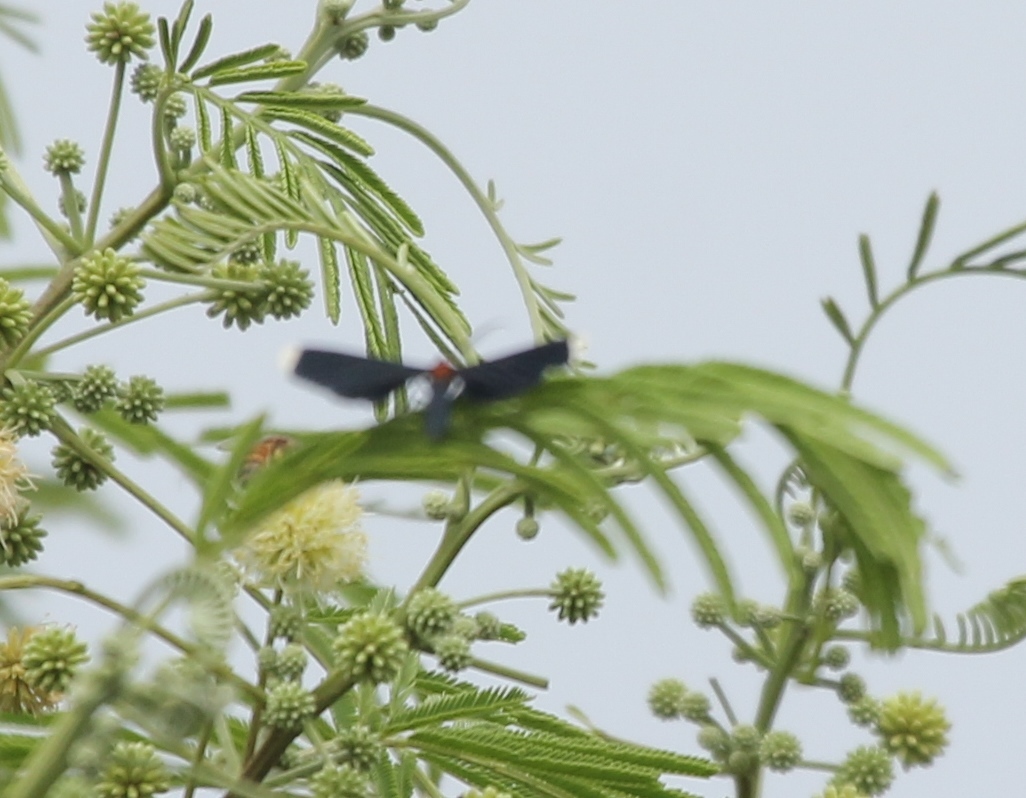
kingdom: Animalia
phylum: Arthropoda
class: Insecta
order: Lepidoptera
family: Geometridae
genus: Melanchroia
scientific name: Melanchroia chephise
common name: White-tipped black
